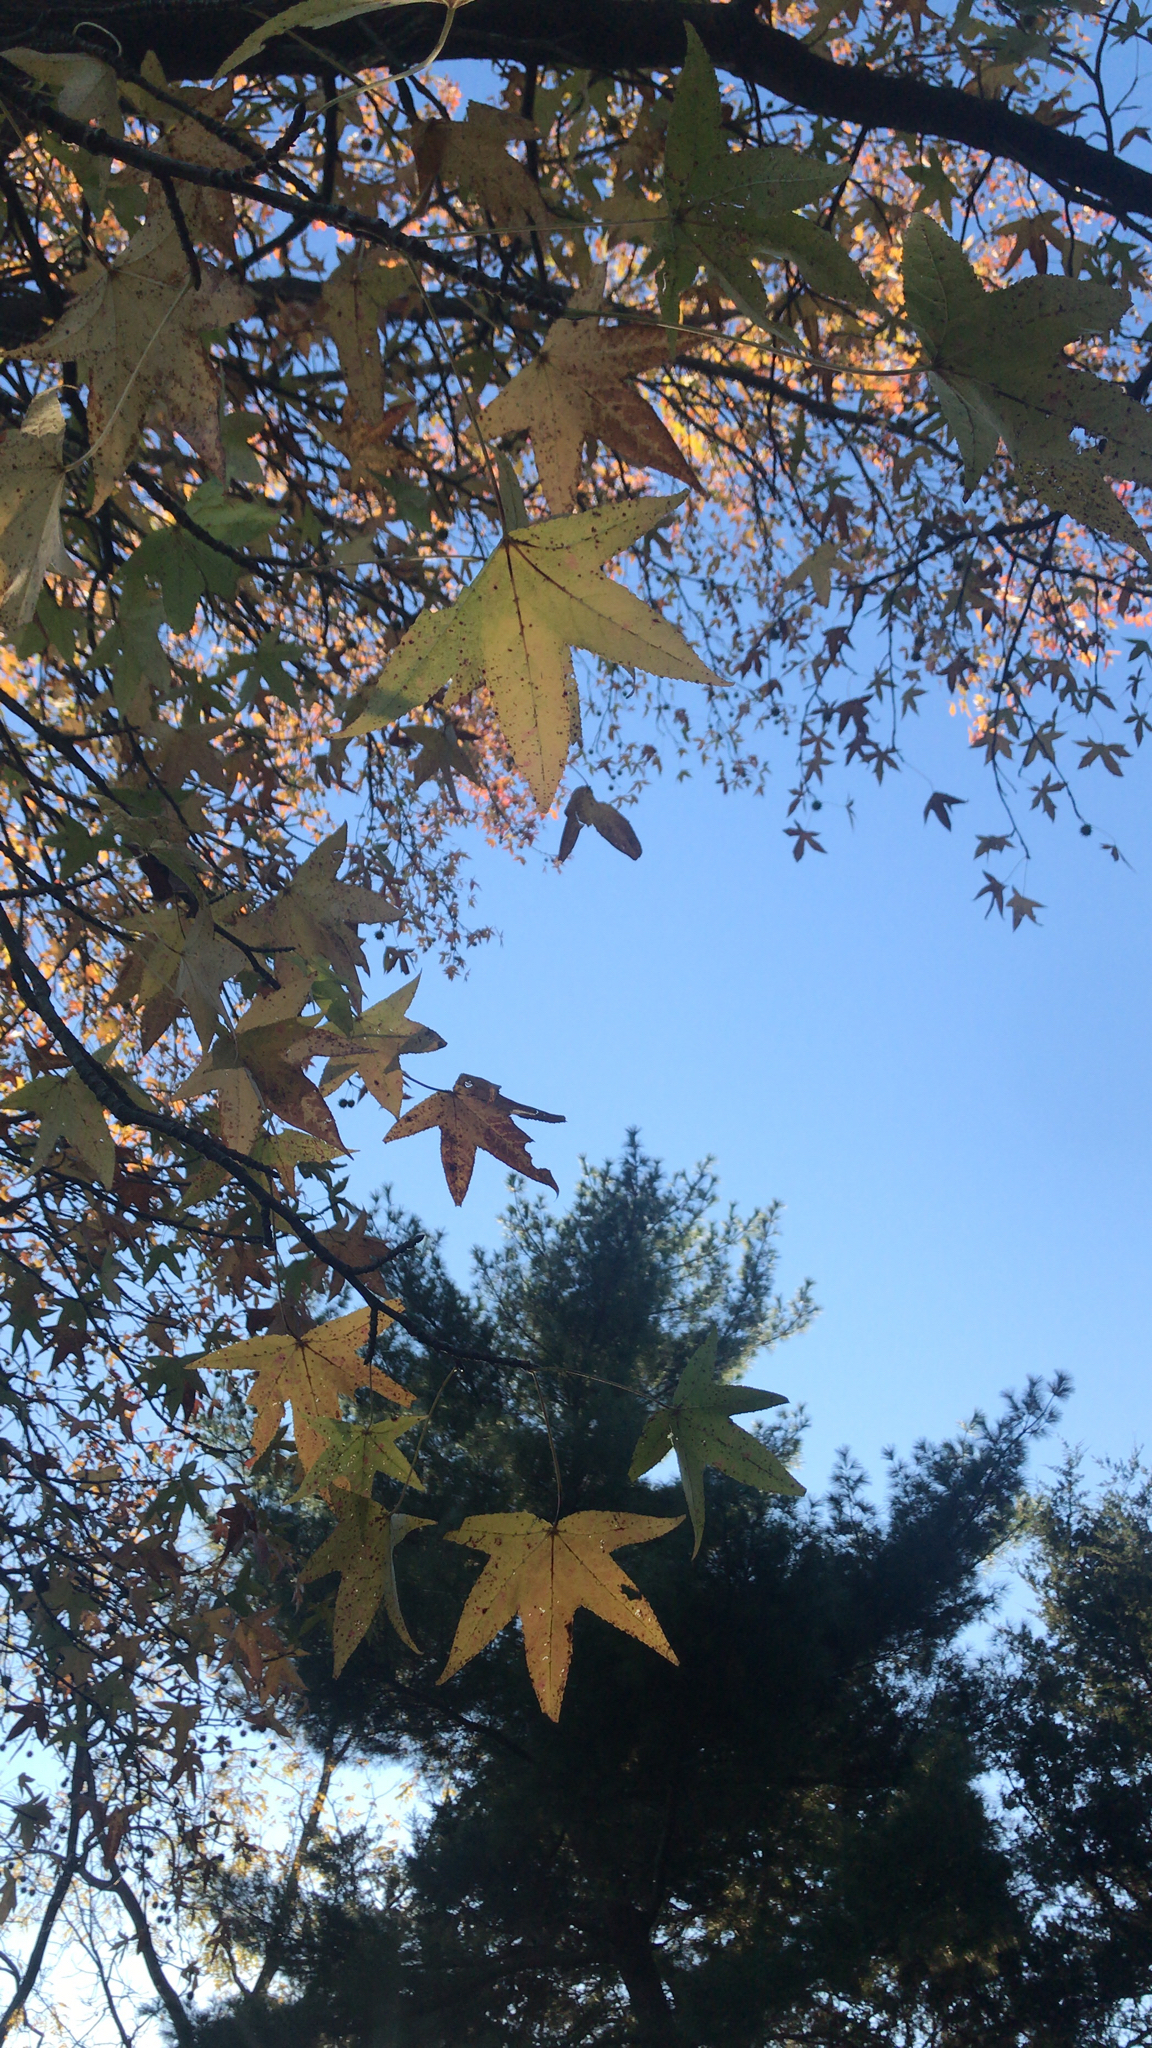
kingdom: Plantae
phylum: Tracheophyta
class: Magnoliopsida
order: Saxifragales
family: Altingiaceae
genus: Liquidambar
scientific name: Liquidambar styraciflua
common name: Sweet gum
